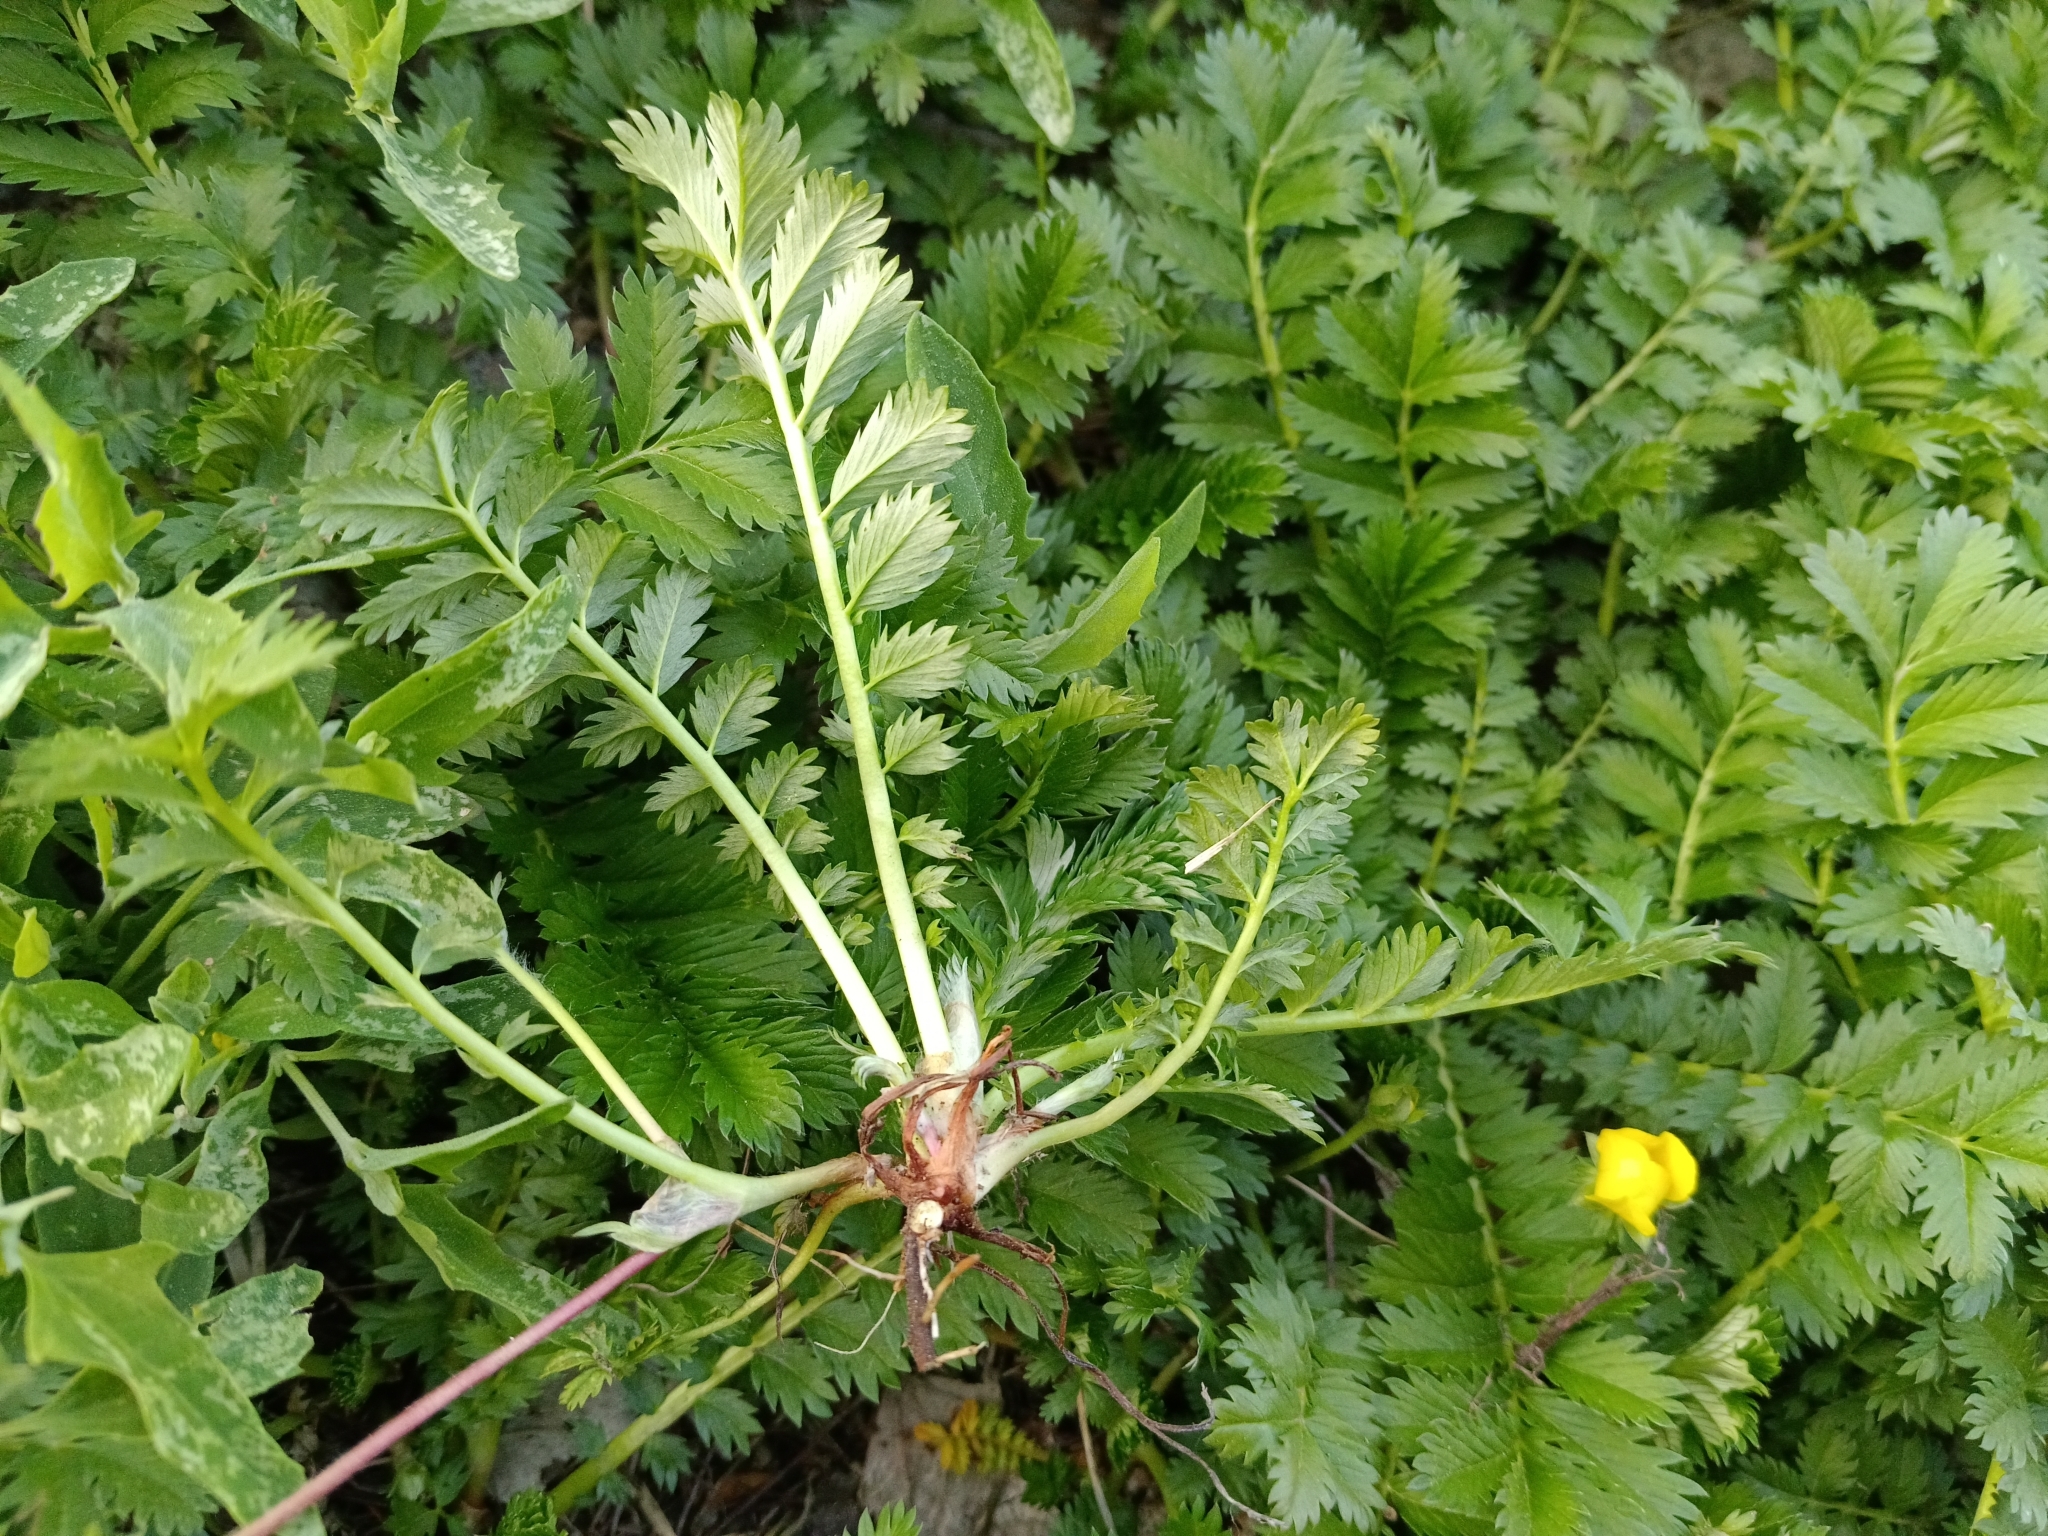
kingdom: Plantae
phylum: Tracheophyta
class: Magnoliopsida
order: Rosales
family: Rosaceae
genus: Argentina
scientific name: Argentina anserina
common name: Common silverweed
